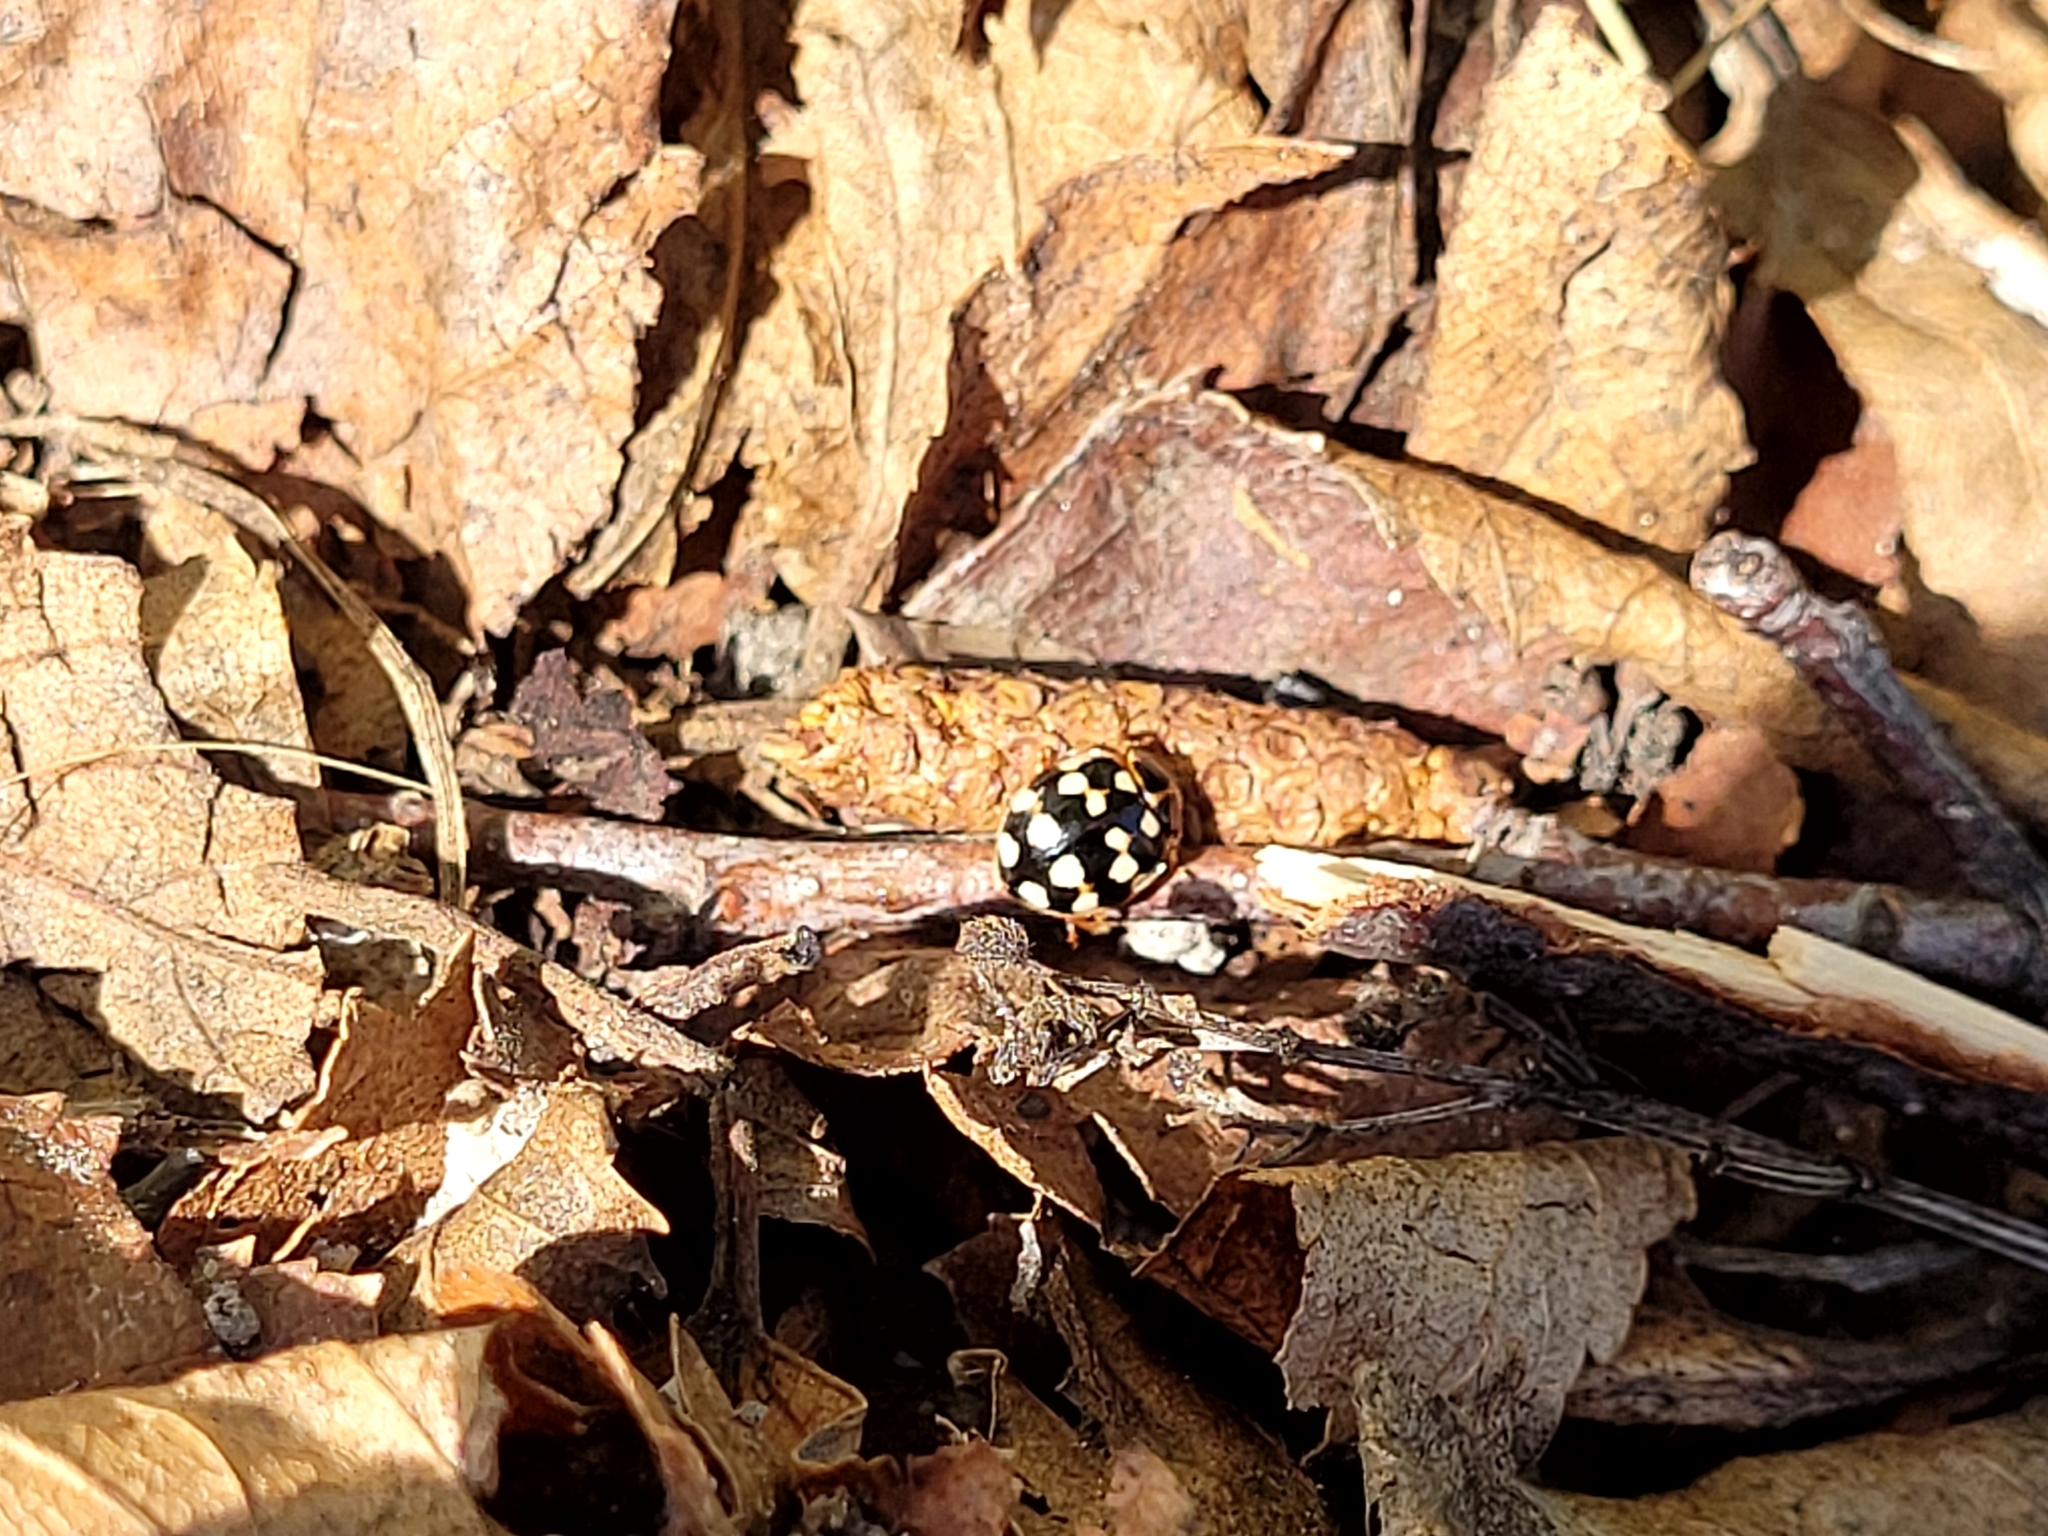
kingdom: Animalia
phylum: Arthropoda
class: Insecta
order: Coleoptera
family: Coccinellidae
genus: Calvia
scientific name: Calvia quatuordecimguttata
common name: Cream-spot ladybird
